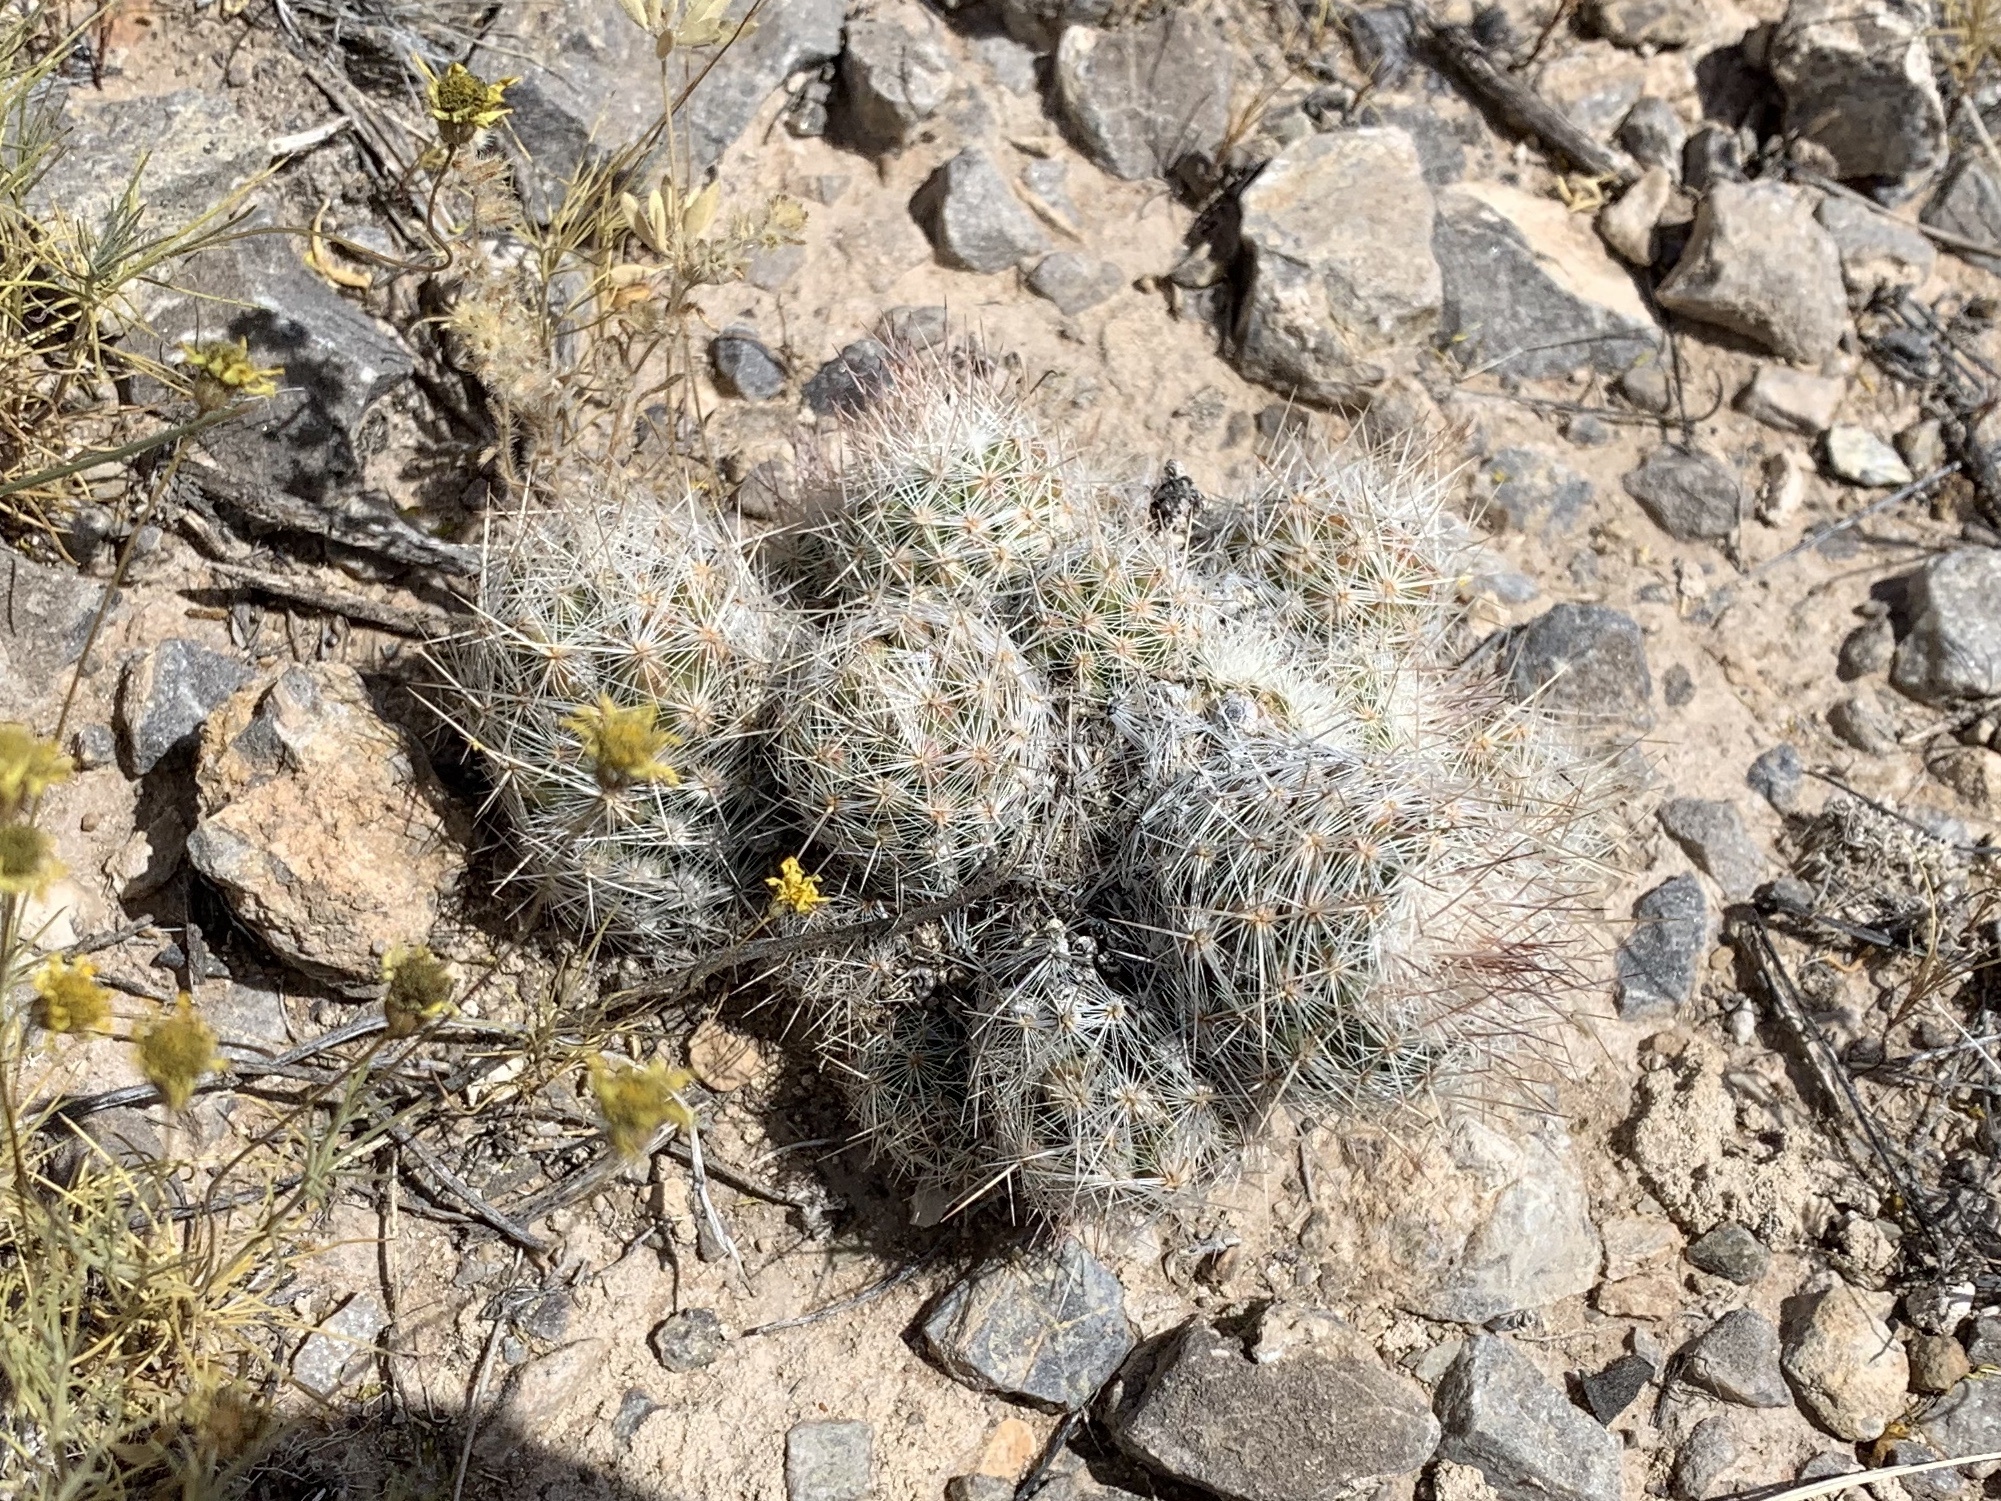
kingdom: Plantae
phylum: Tracheophyta
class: Magnoliopsida
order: Caryophyllales
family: Cactaceae
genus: Pelecyphora
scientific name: Pelecyphora tuberculosa
